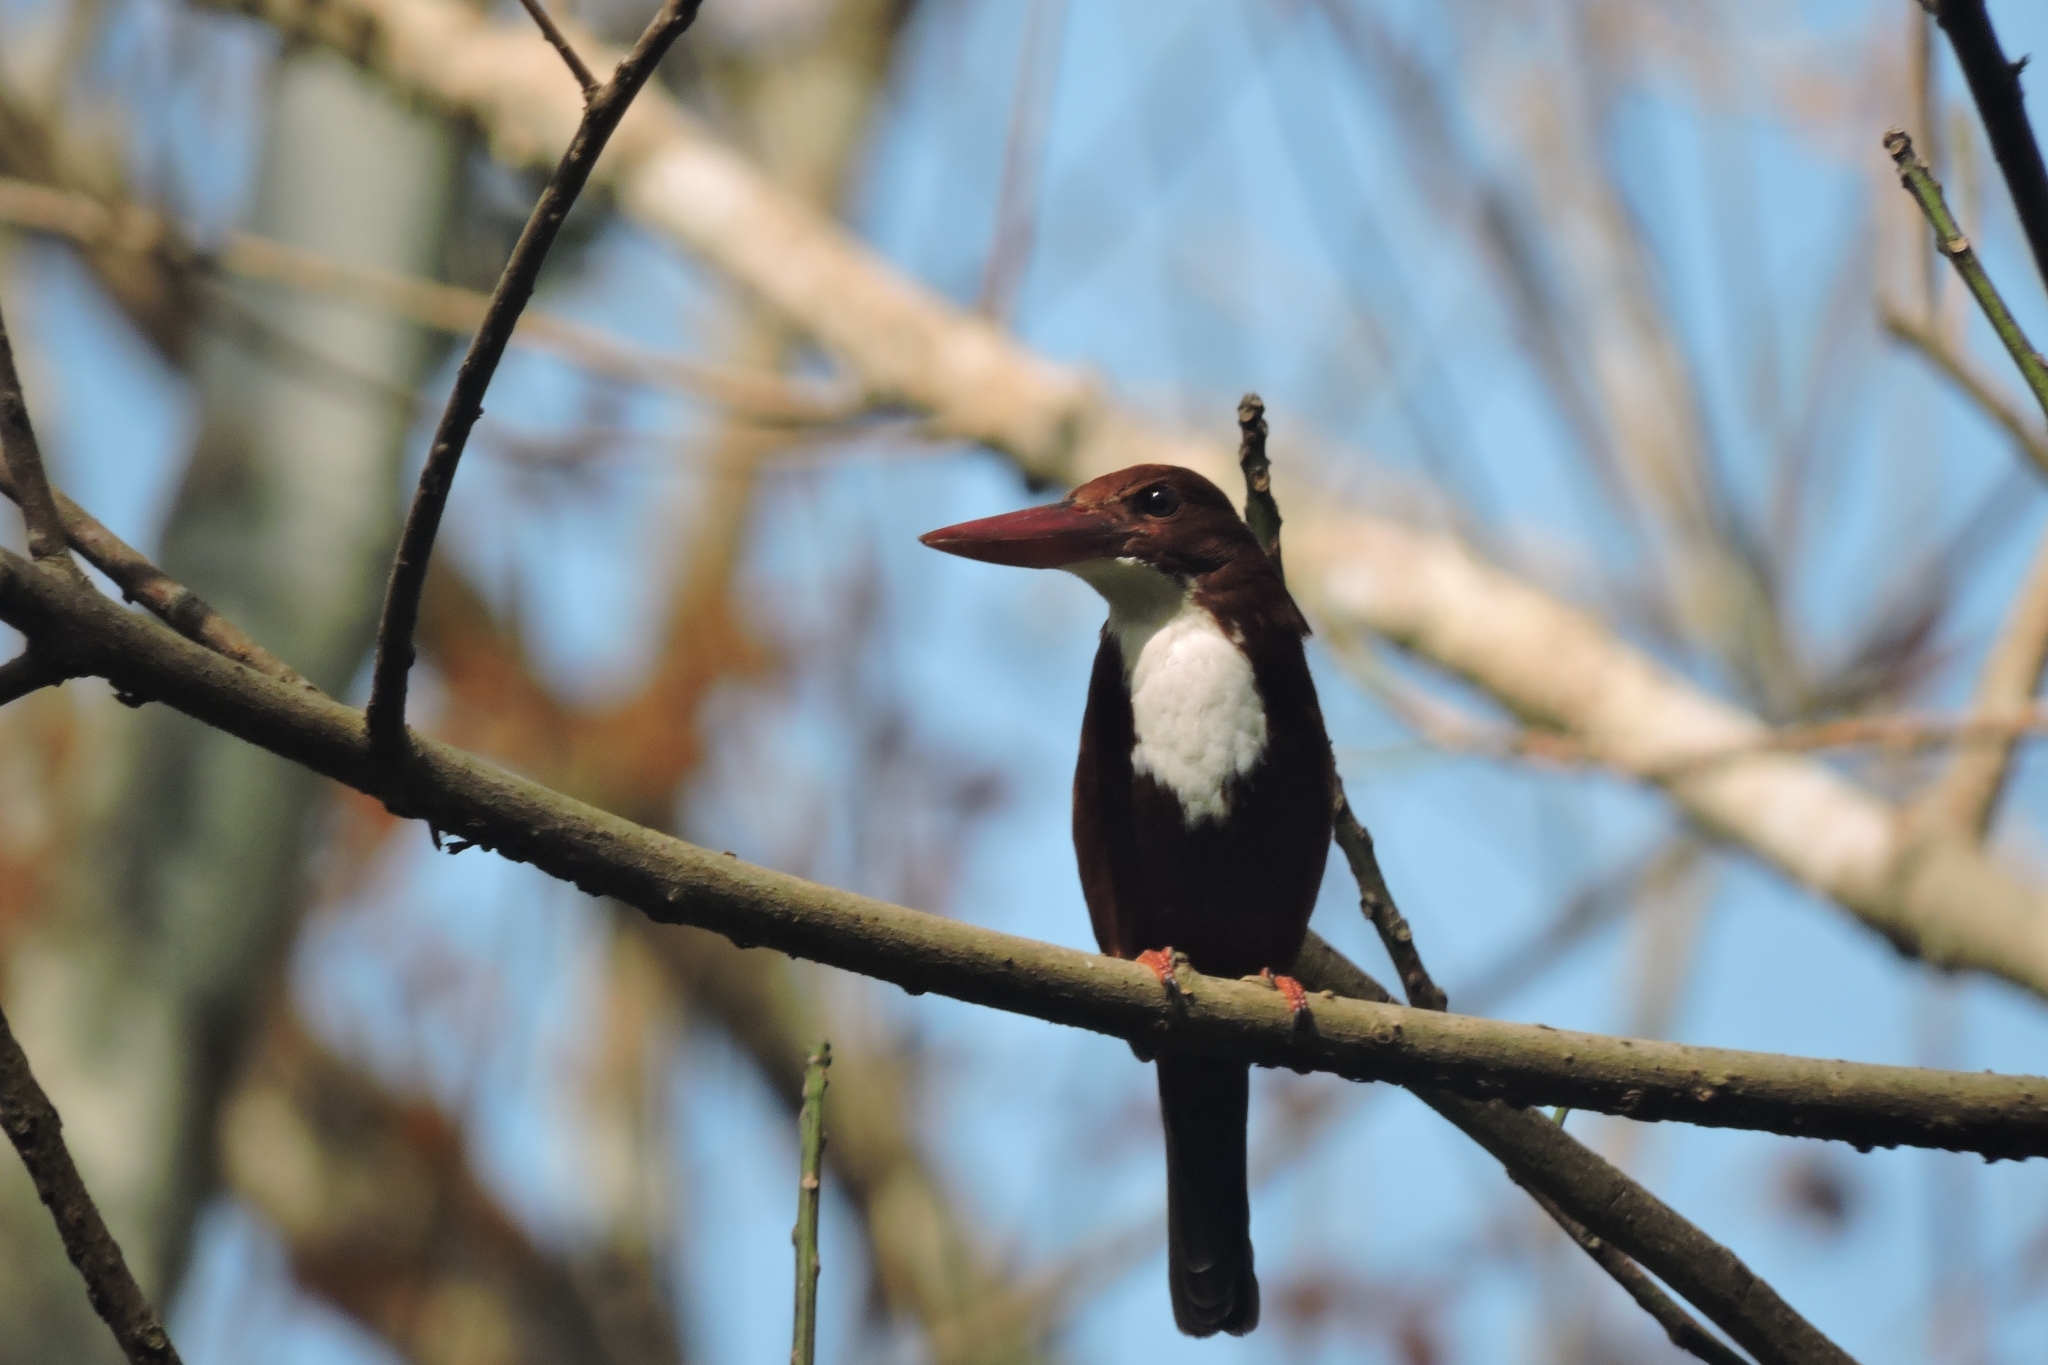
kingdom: Animalia
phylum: Chordata
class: Aves
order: Coraciiformes
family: Alcedinidae
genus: Halcyon
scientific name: Halcyon smyrnensis
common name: White-throated kingfisher
